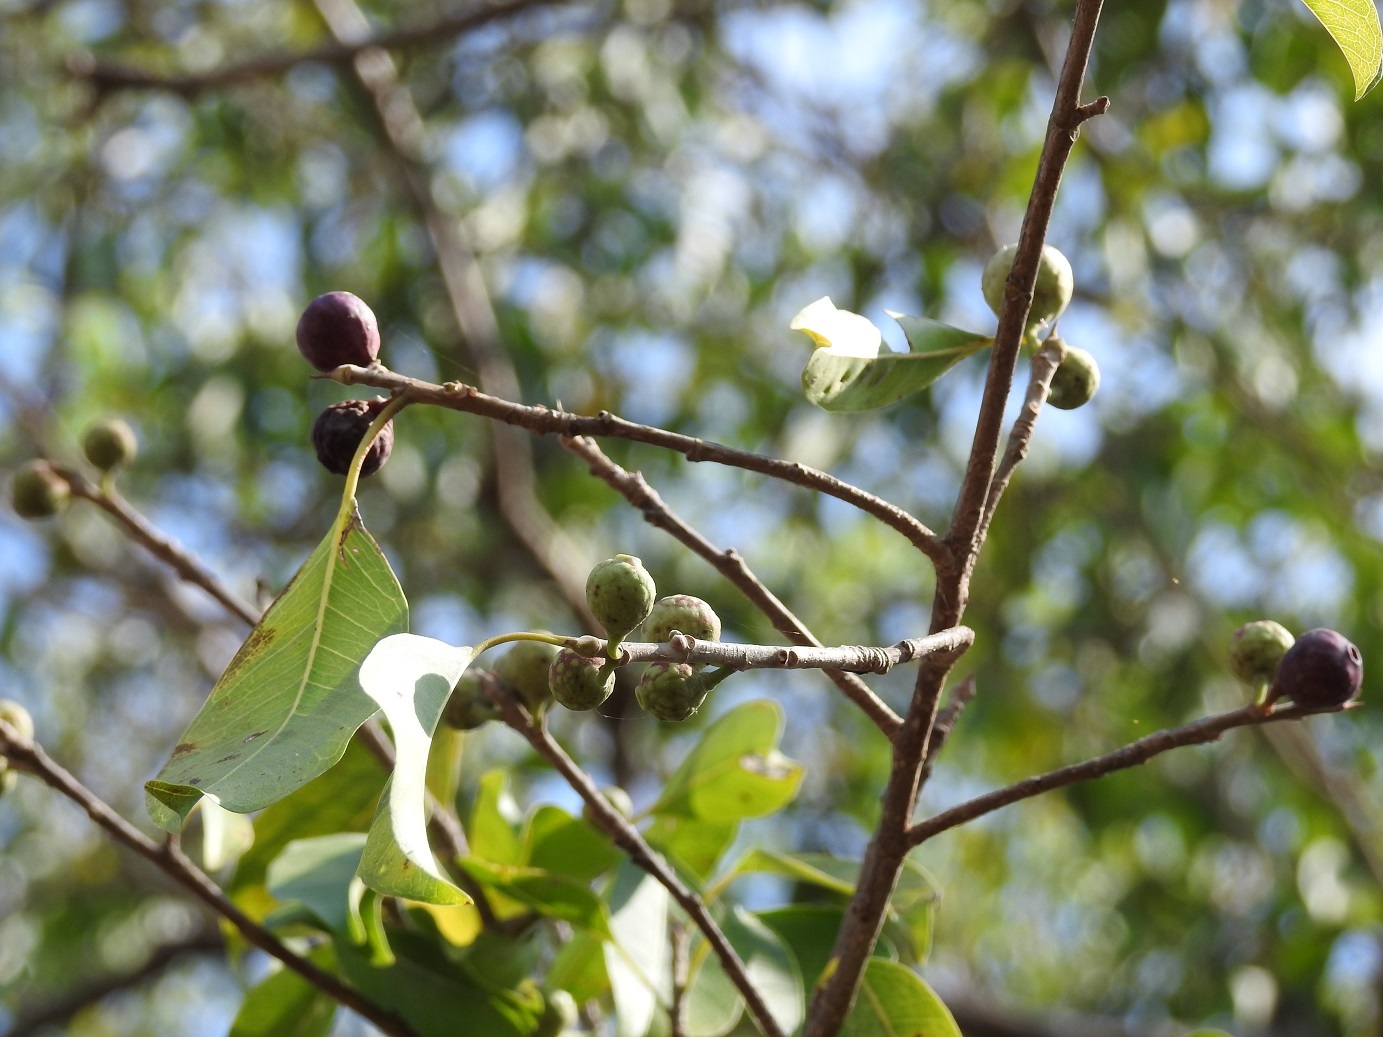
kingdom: Plantae
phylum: Tracheophyta
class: Magnoliopsida
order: Rosales
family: Moraceae
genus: Ficus
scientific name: Ficus pertusa
